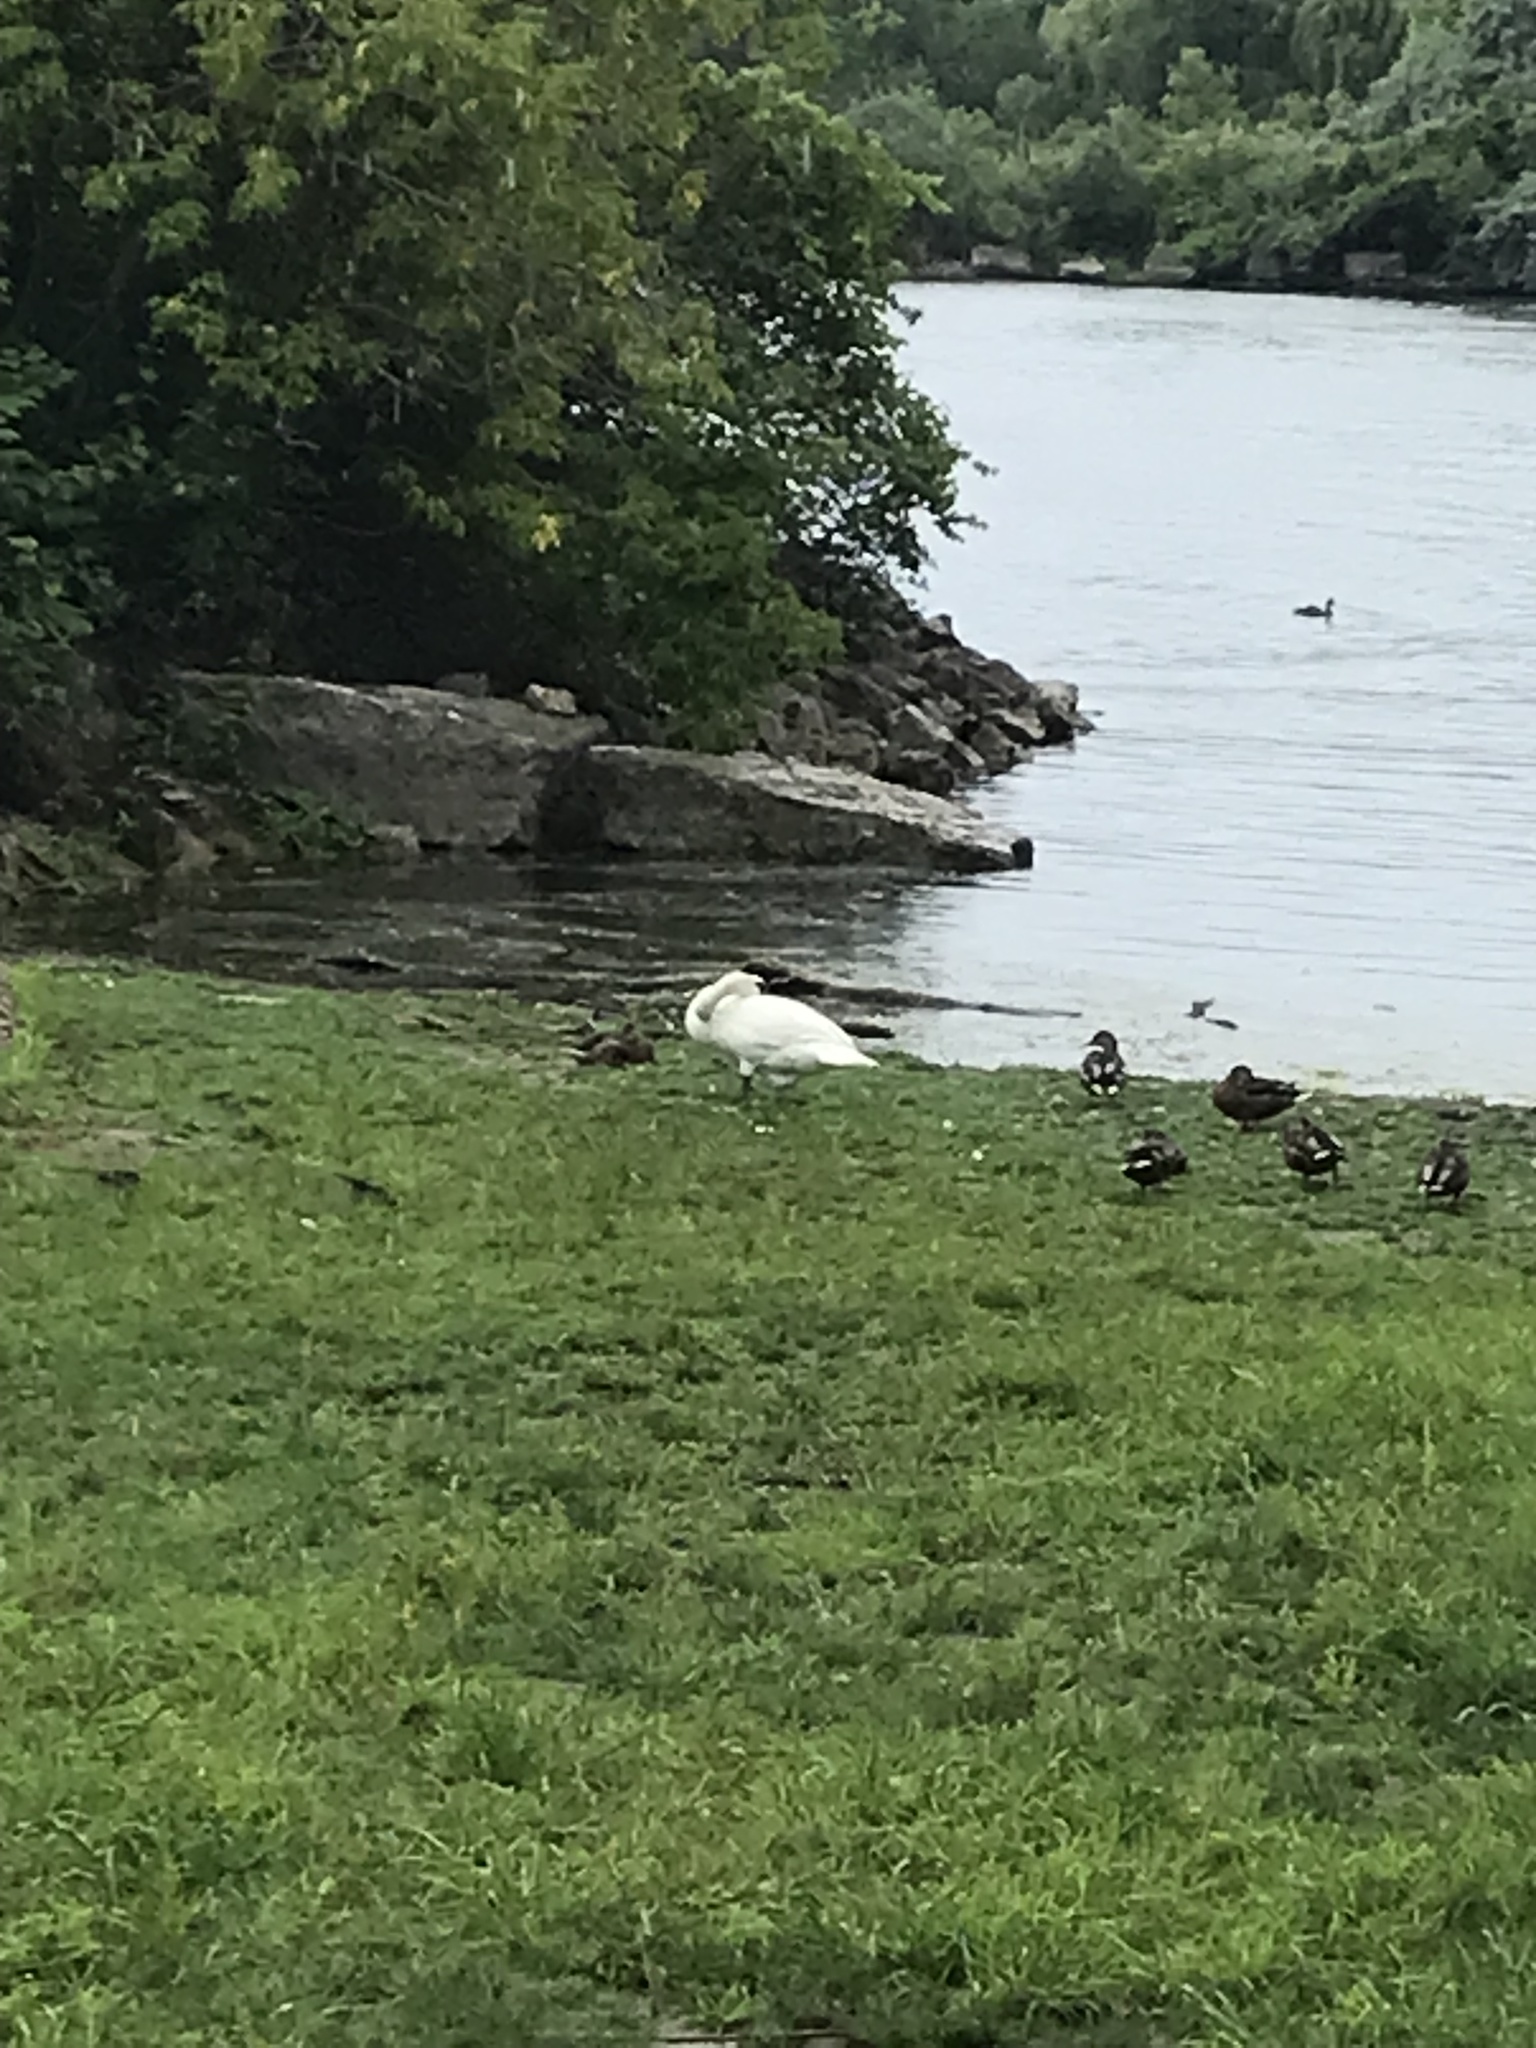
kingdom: Animalia
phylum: Chordata
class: Aves
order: Anseriformes
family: Anatidae
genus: Cygnus
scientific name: Cygnus olor
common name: Mute swan
